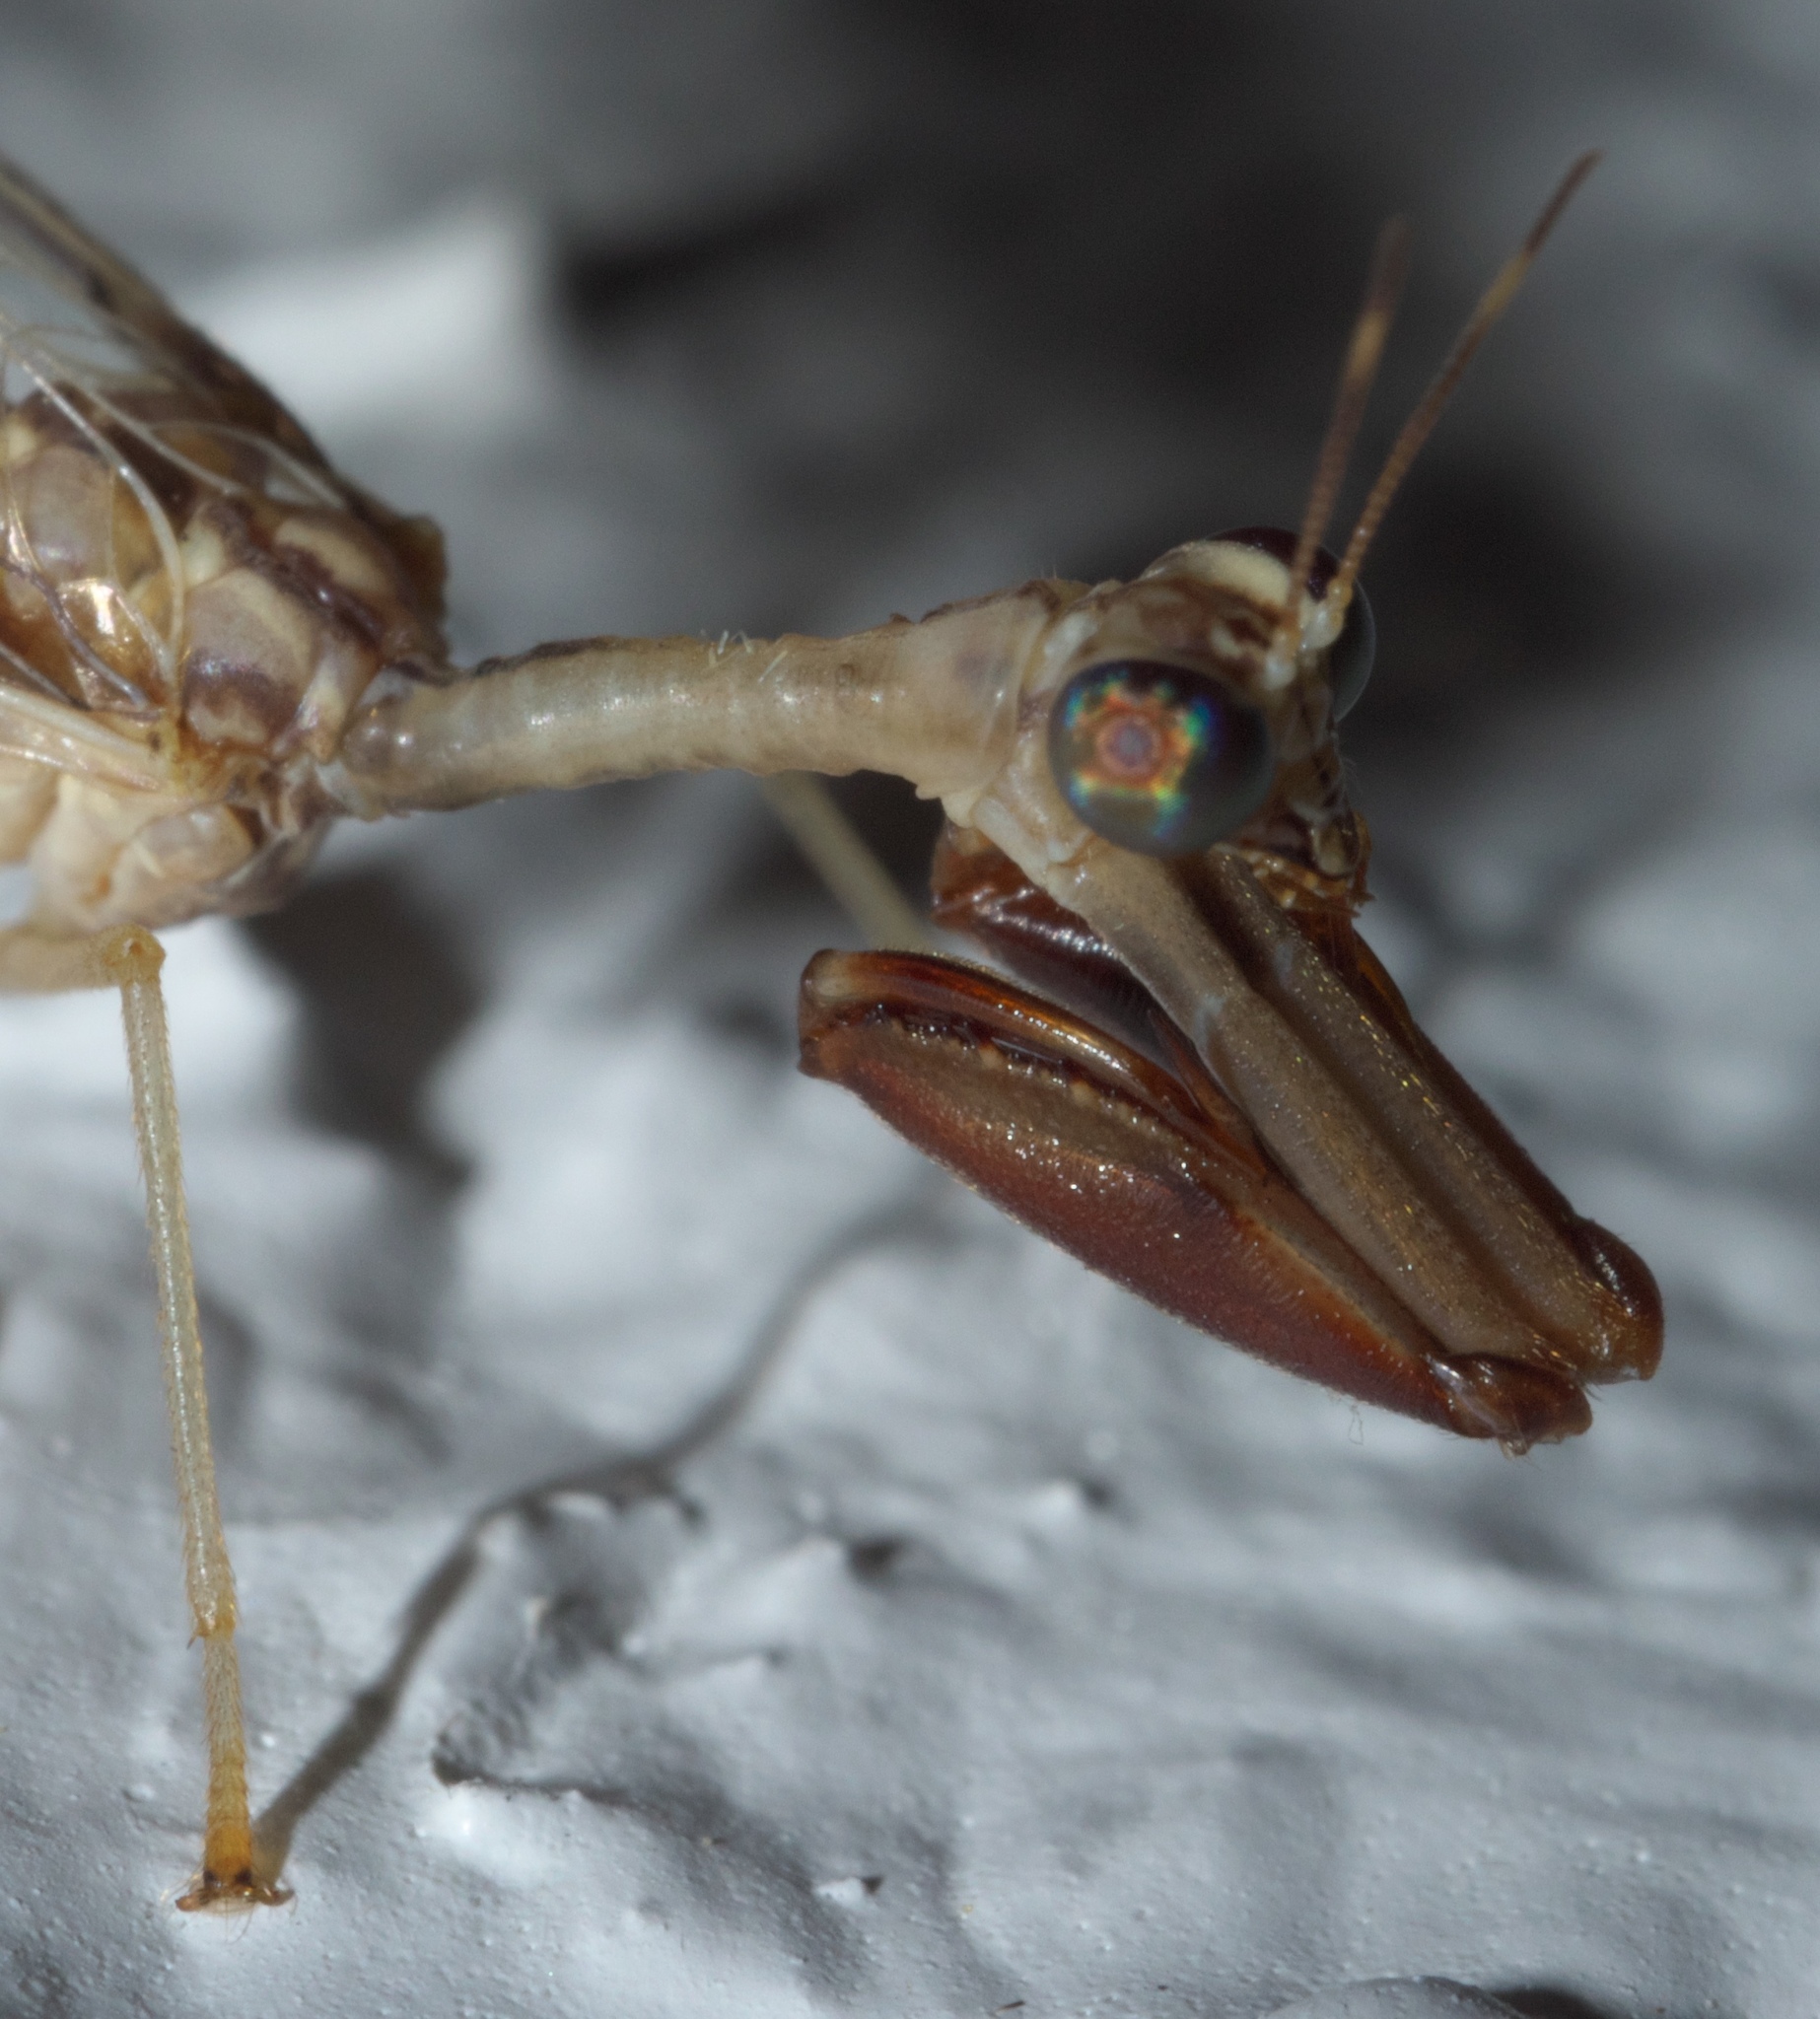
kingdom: Animalia
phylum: Arthropoda
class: Insecta
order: Neuroptera
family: Mantispidae
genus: Dicromantispa
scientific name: Dicromantispa interrupta
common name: Four-spotted mantidfly
